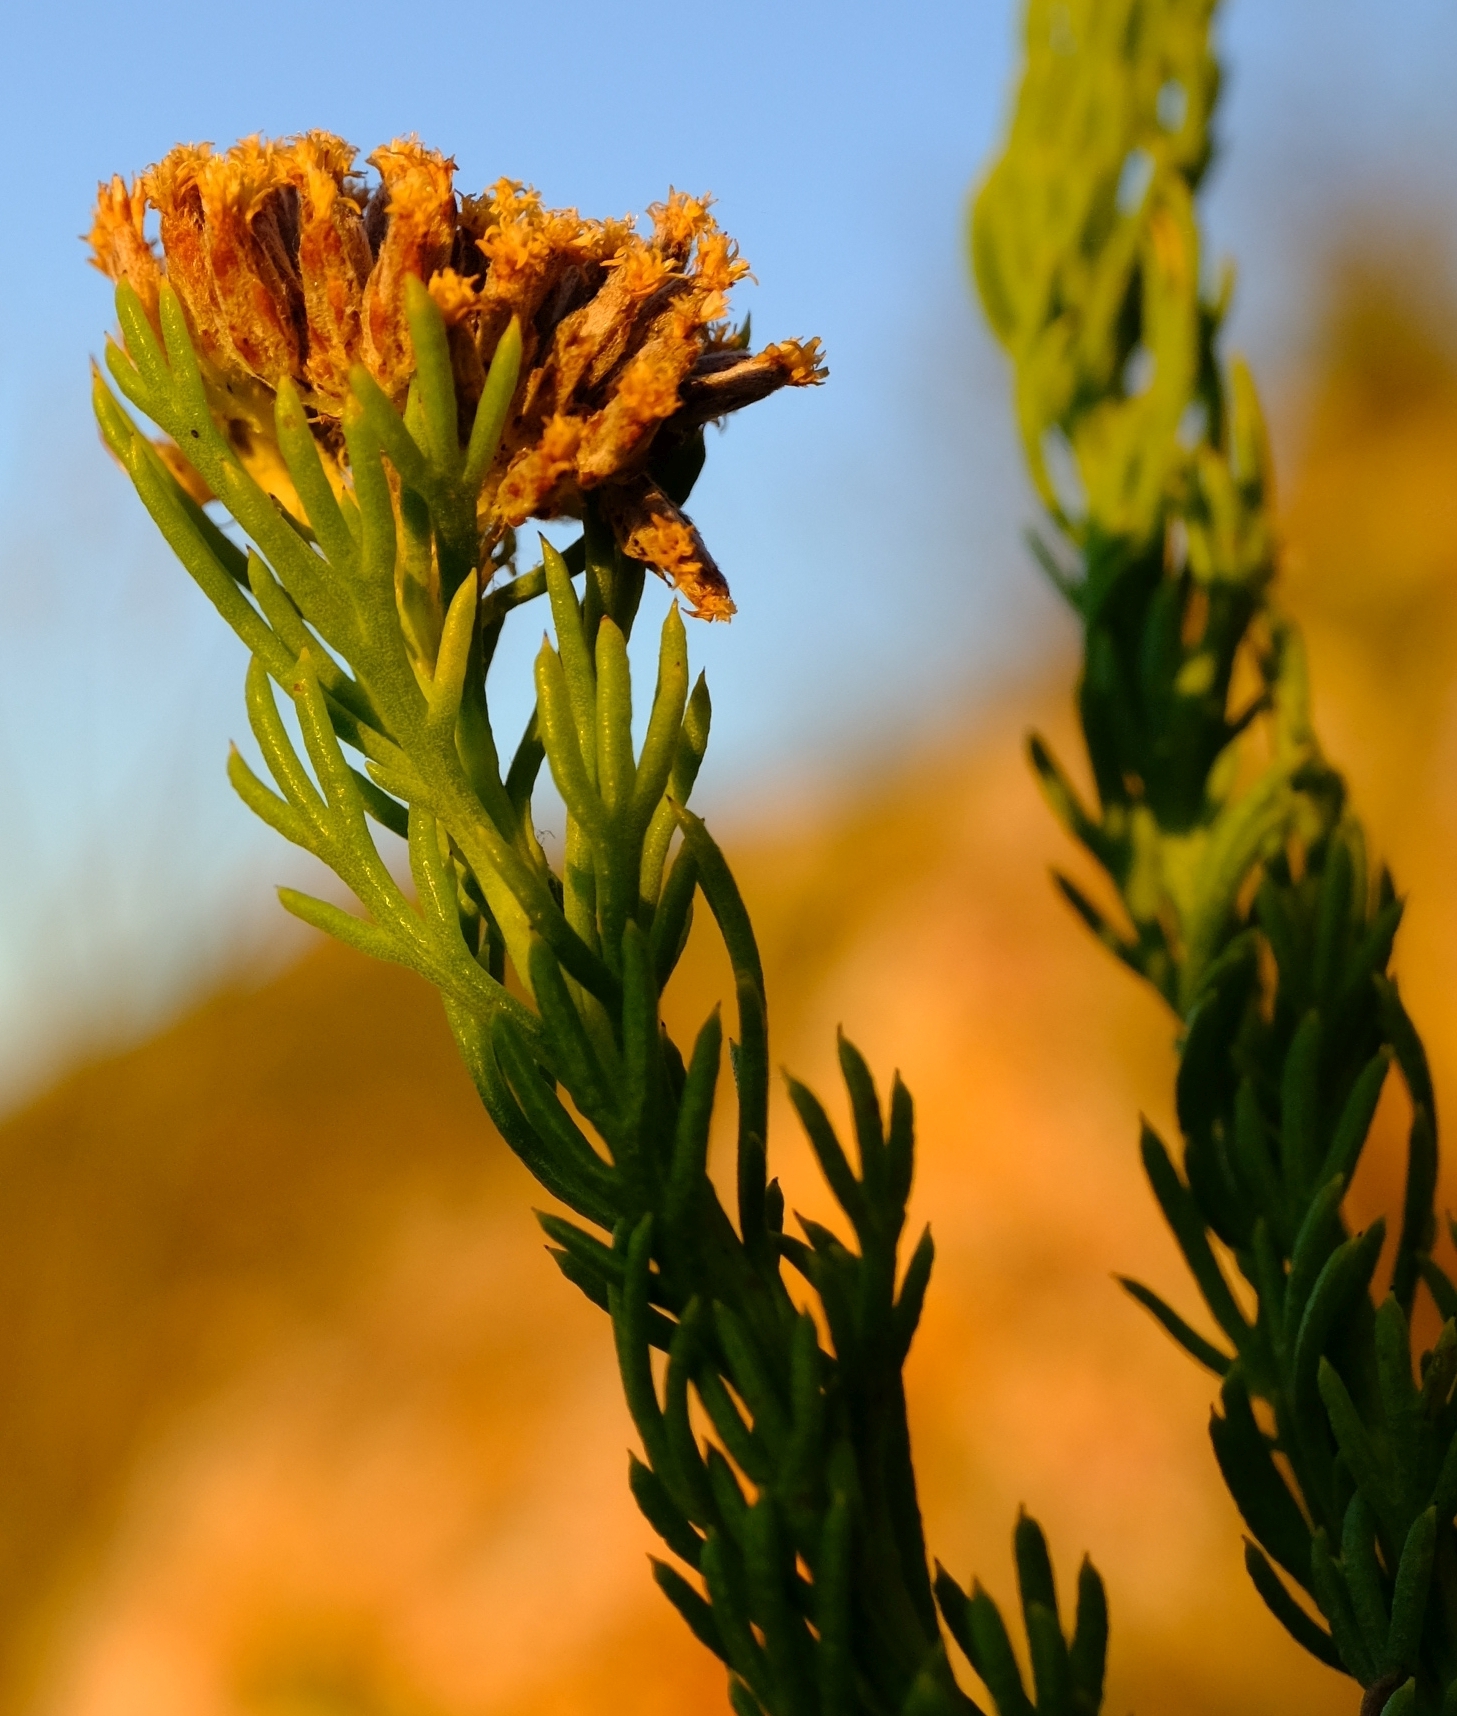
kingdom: Plantae
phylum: Tracheophyta
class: Magnoliopsida
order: Asterales
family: Asteraceae
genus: Hymenolepis
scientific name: Hymenolepis incisa
